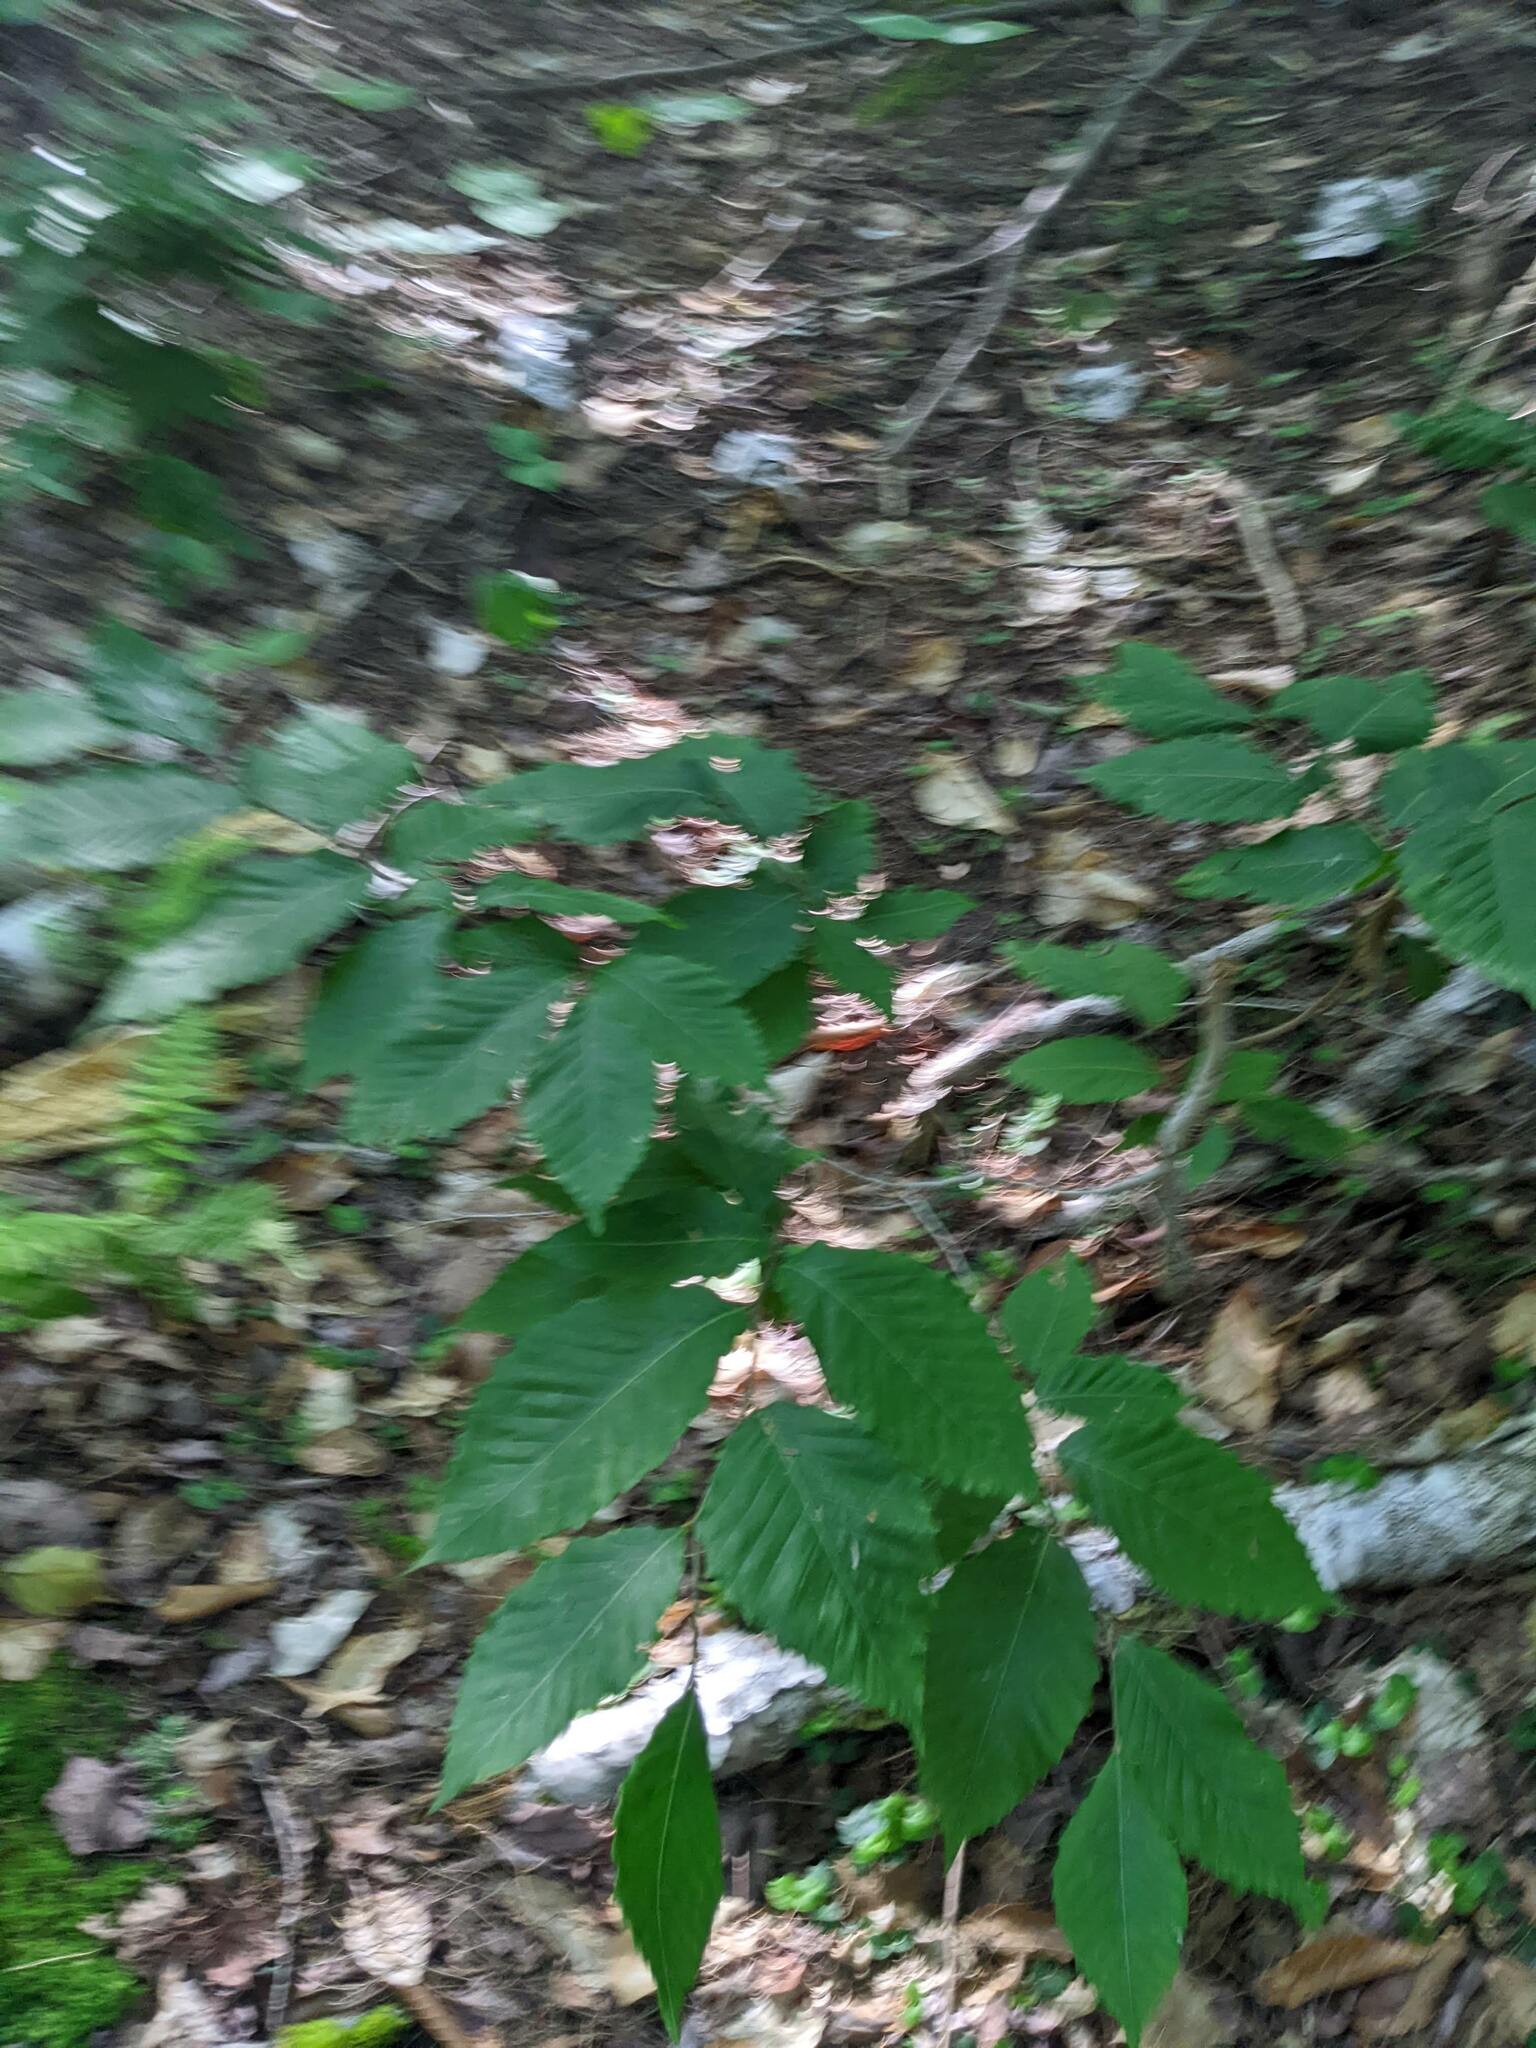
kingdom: Plantae
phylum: Tracheophyta
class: Magnoliopsida
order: Fagales
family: Fagaceae
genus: Fagus
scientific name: Fagus grandifolia
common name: American beech
